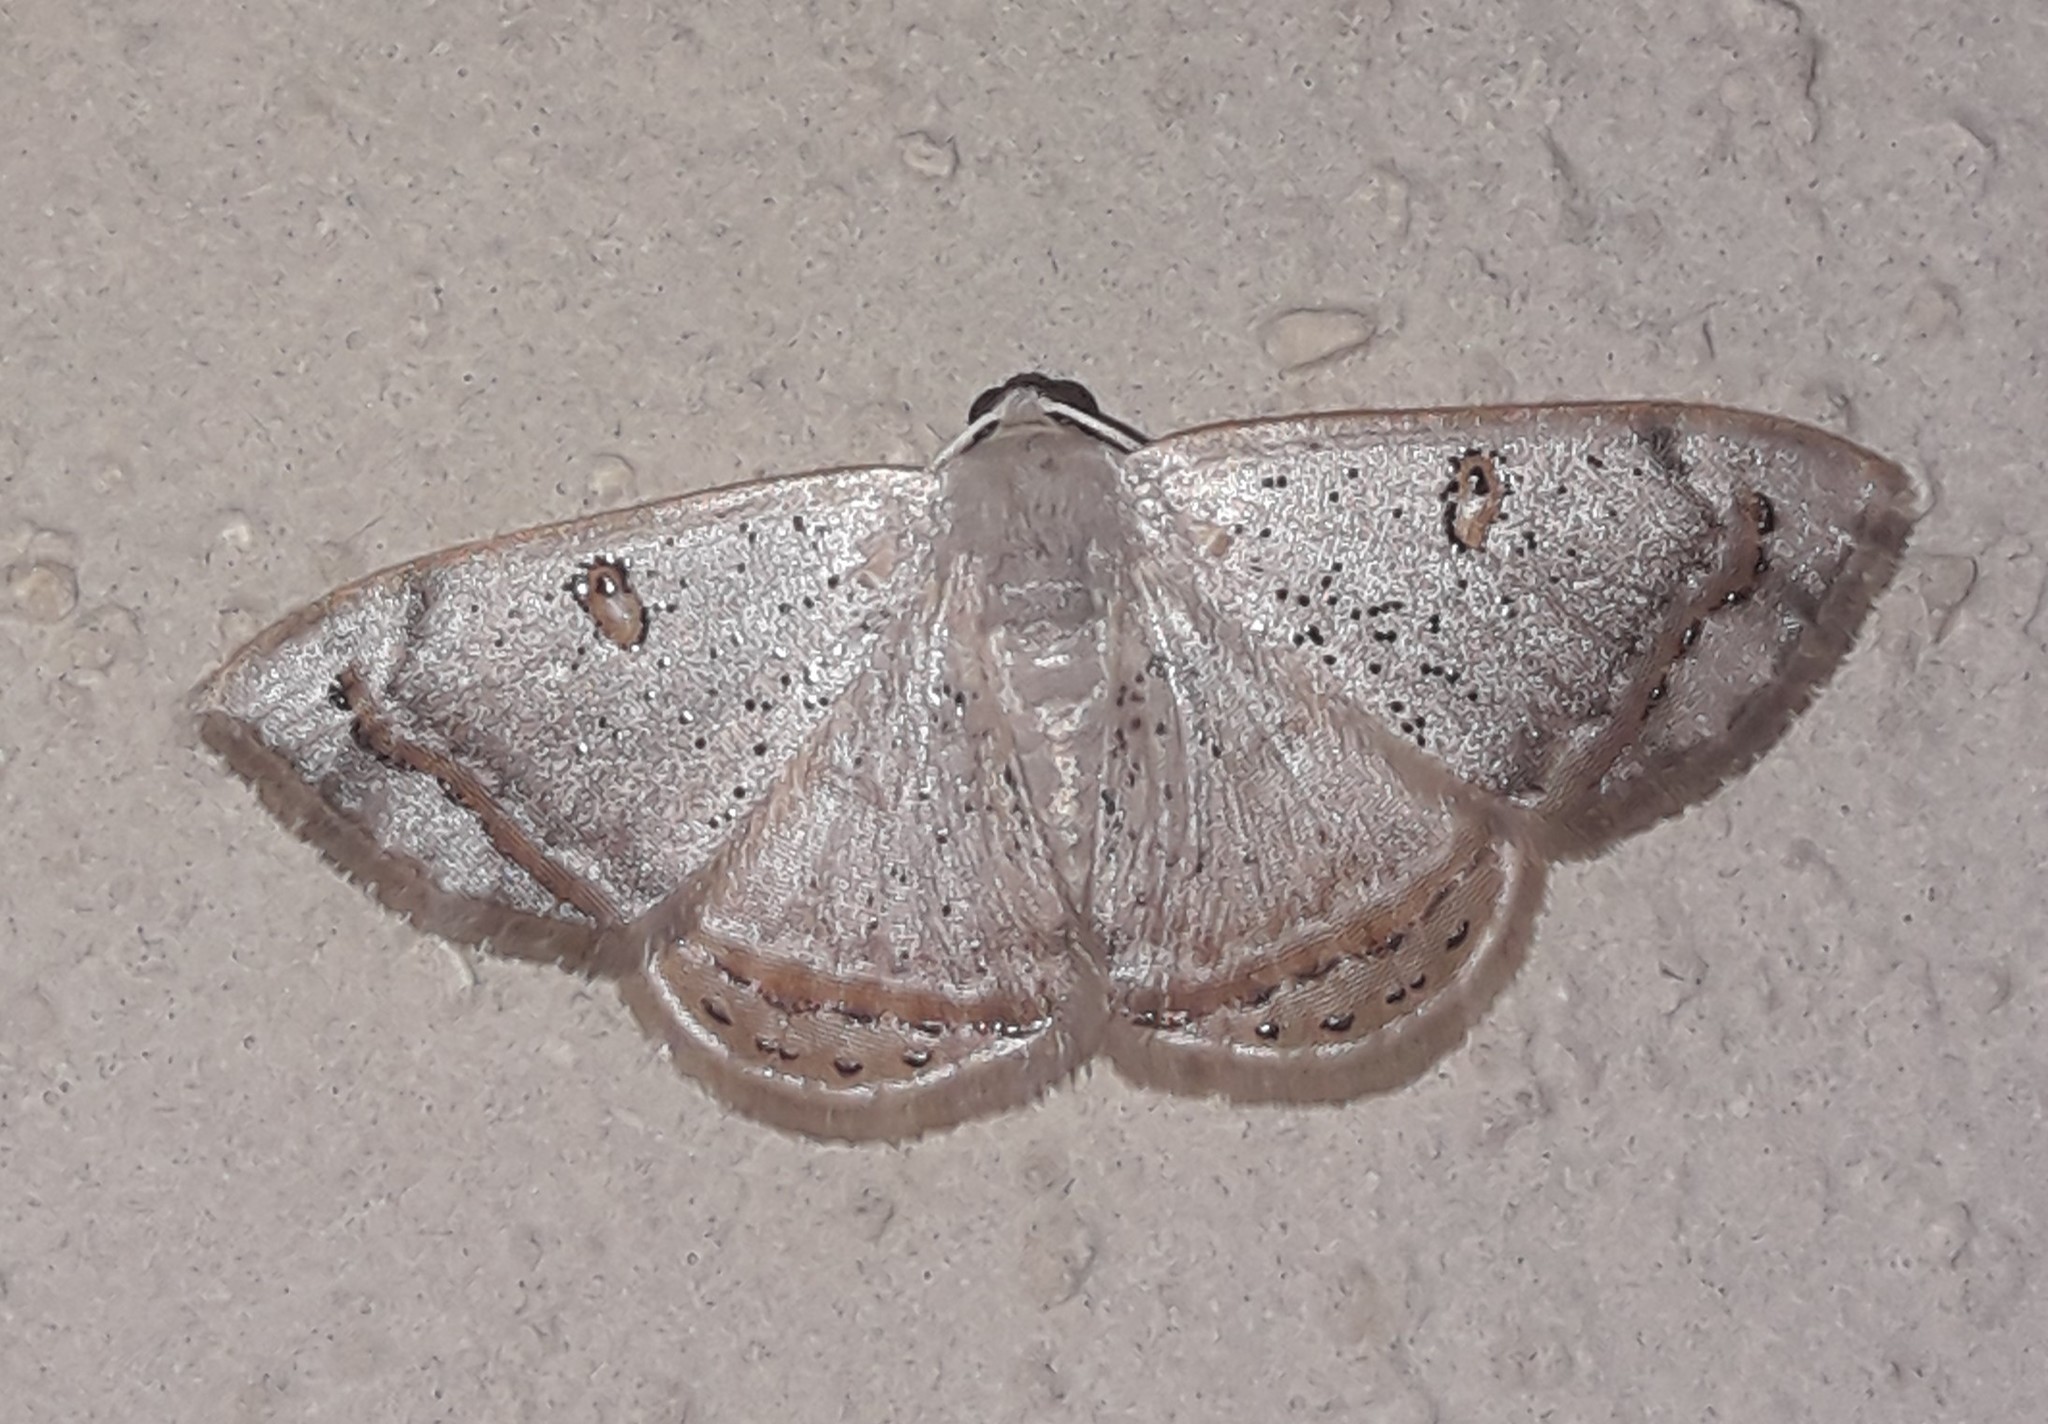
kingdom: Animalia
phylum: Arthropoda
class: Insecta
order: Lepidoptera
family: Geometridae
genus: Argyrotome
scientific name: Argyrotome prospectata
